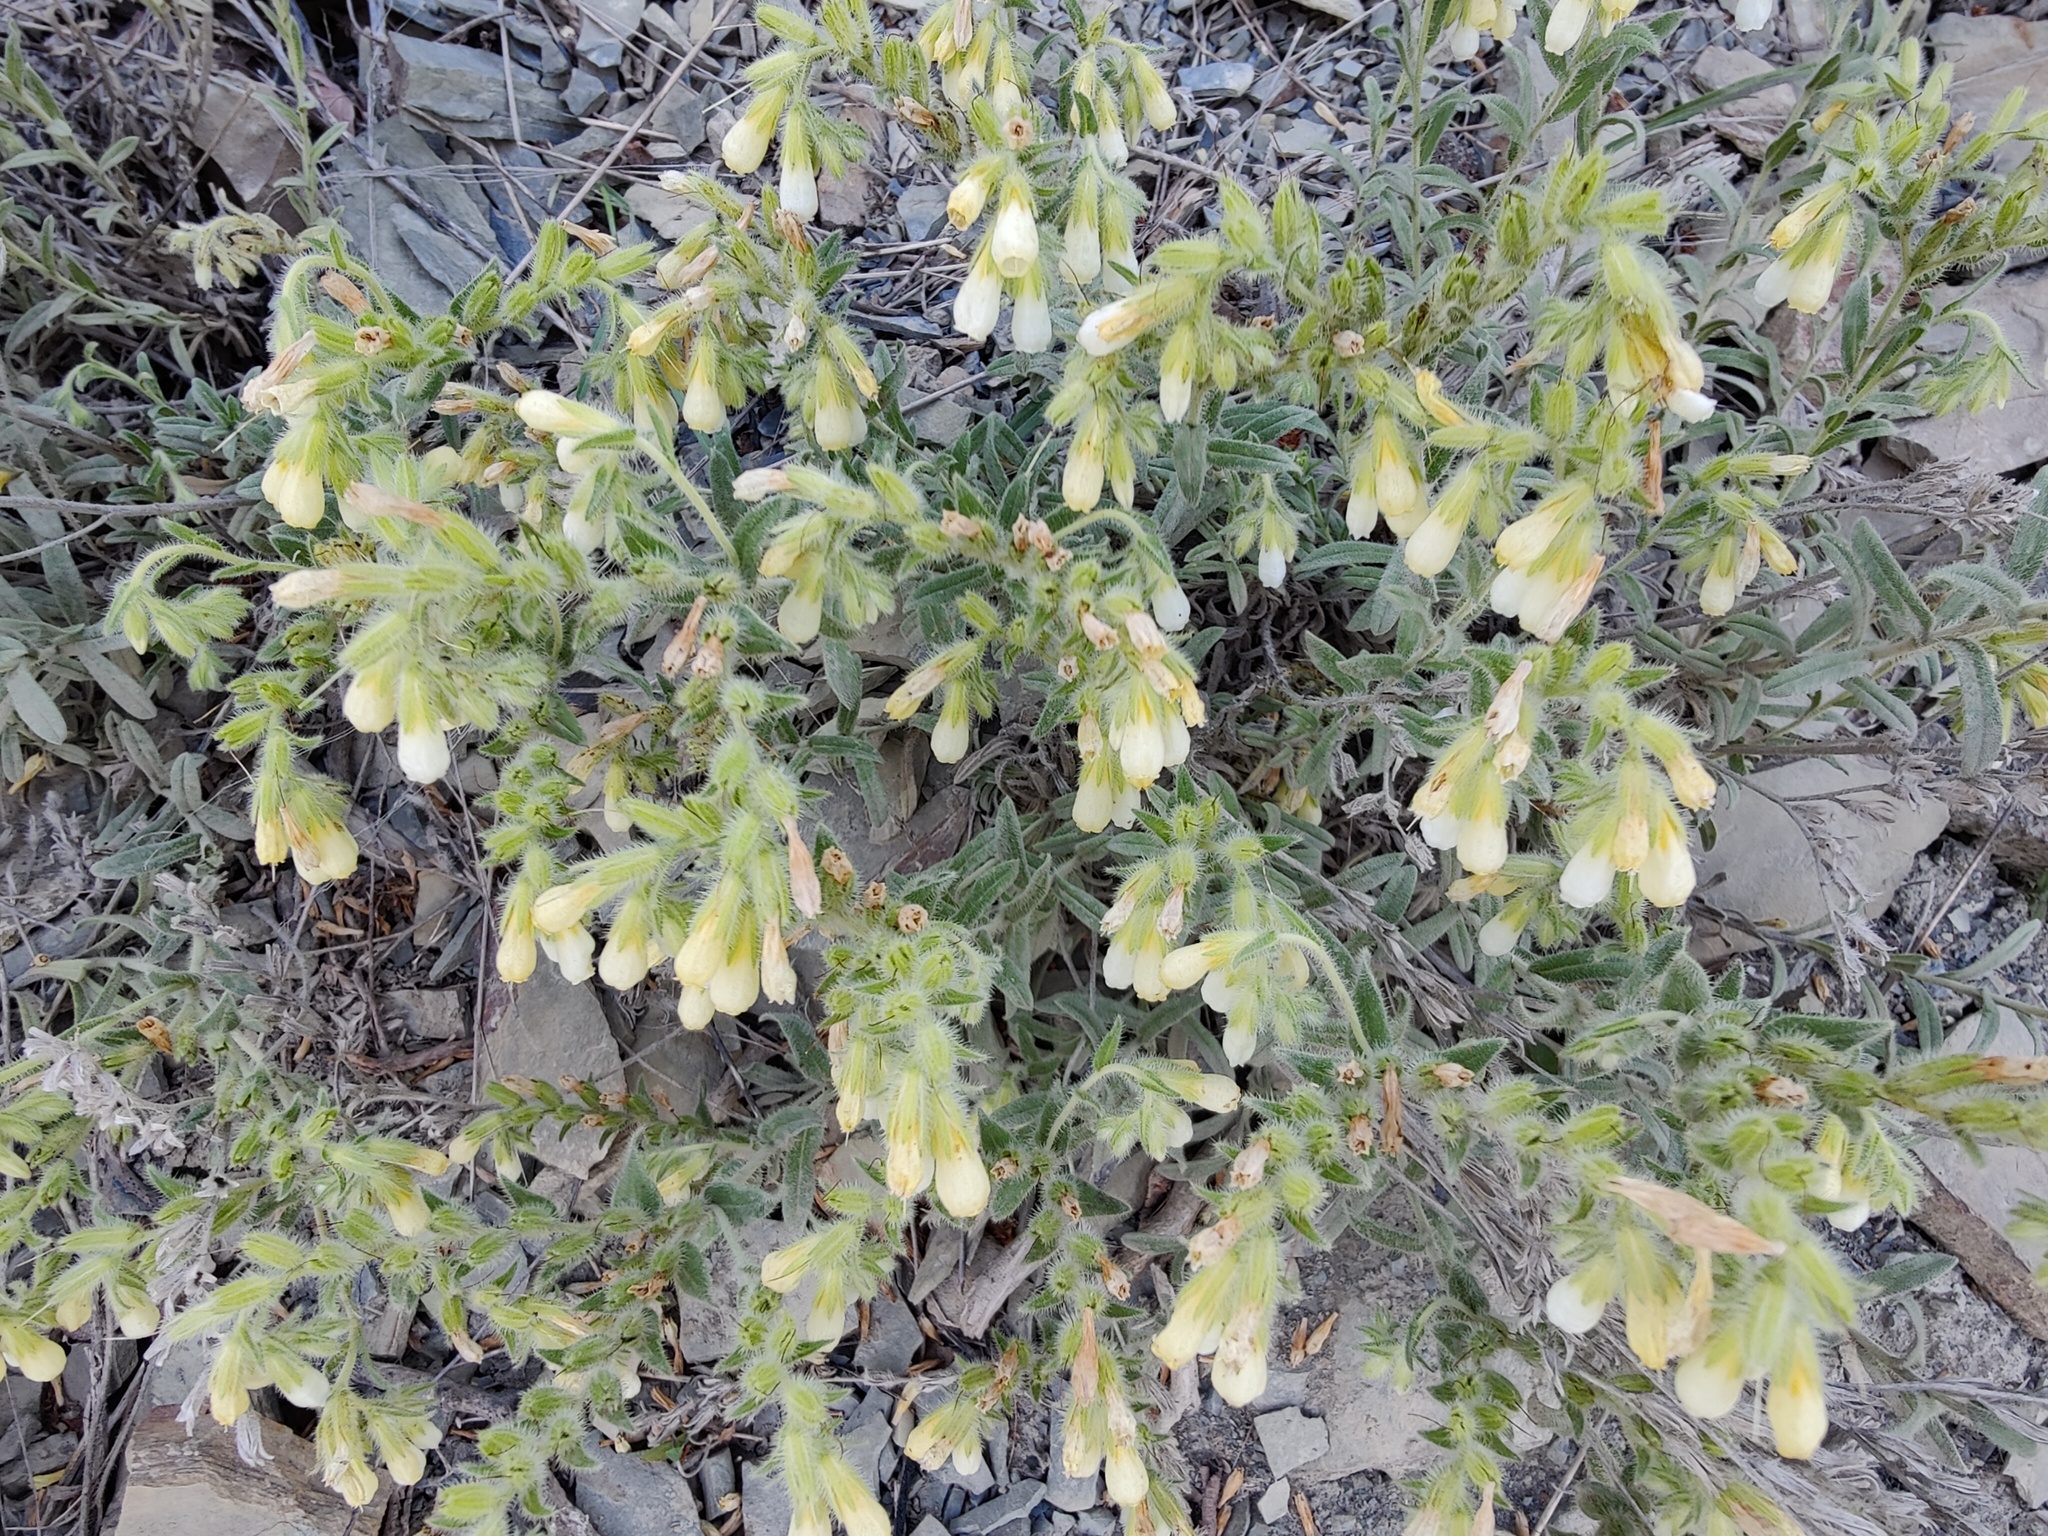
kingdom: Plantae
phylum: Tracheophyta
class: Magnoliopsida
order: Boraginales
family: Boraginaceae
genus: Onosma
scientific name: Onosma aucheriana
